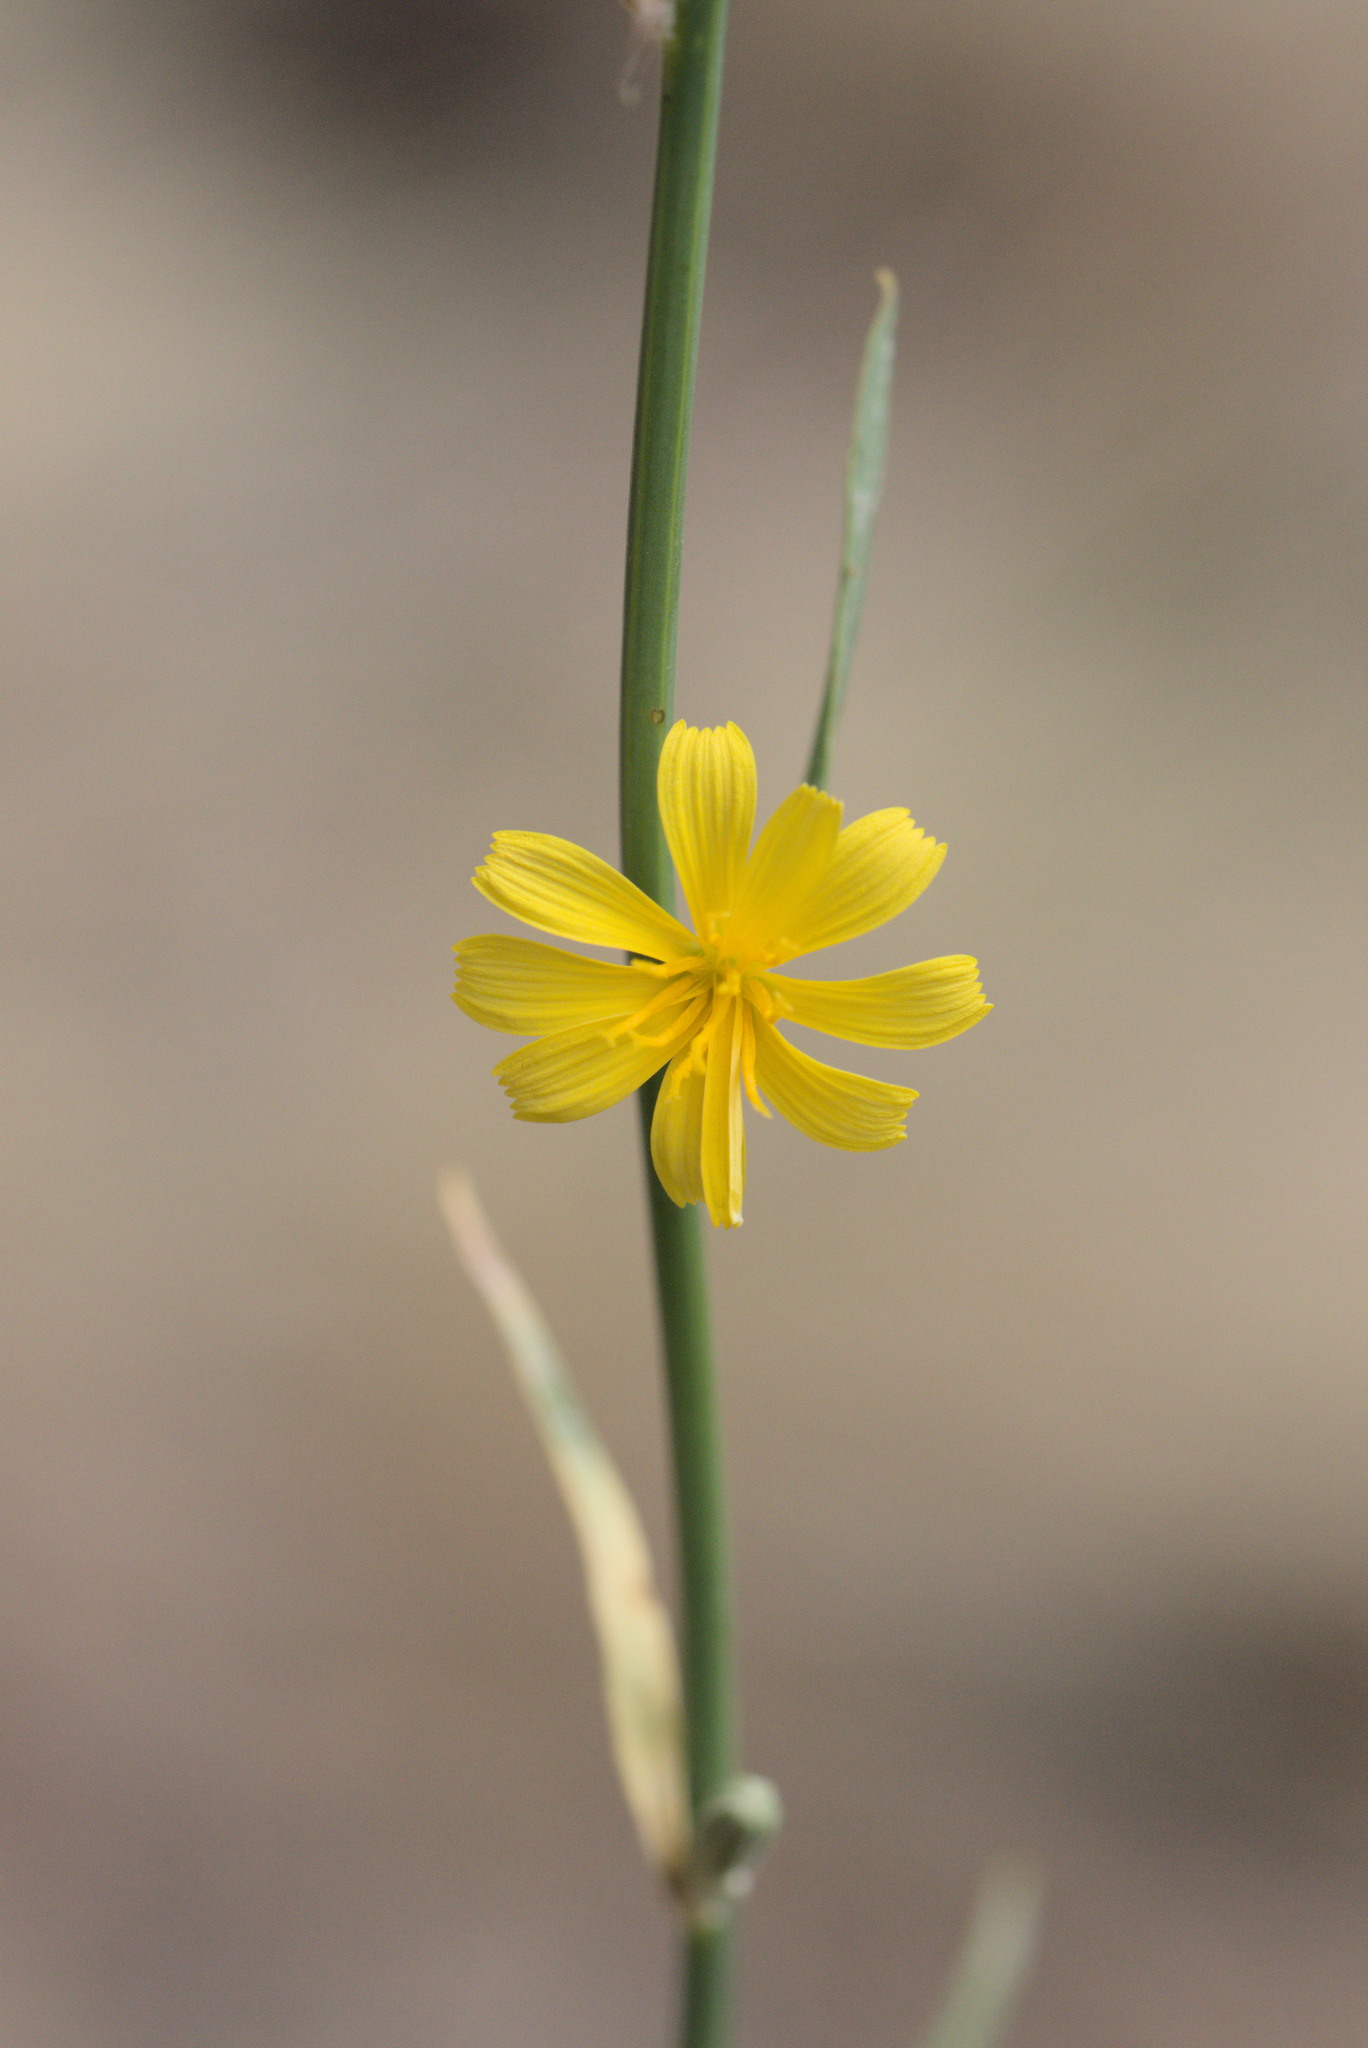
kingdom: Plantae
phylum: Tracheophyta
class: Magnoliopsida
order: Asterales
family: Asteraceae
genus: Chondrilla
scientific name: Chondrilla juncea
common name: Skeleton weed
